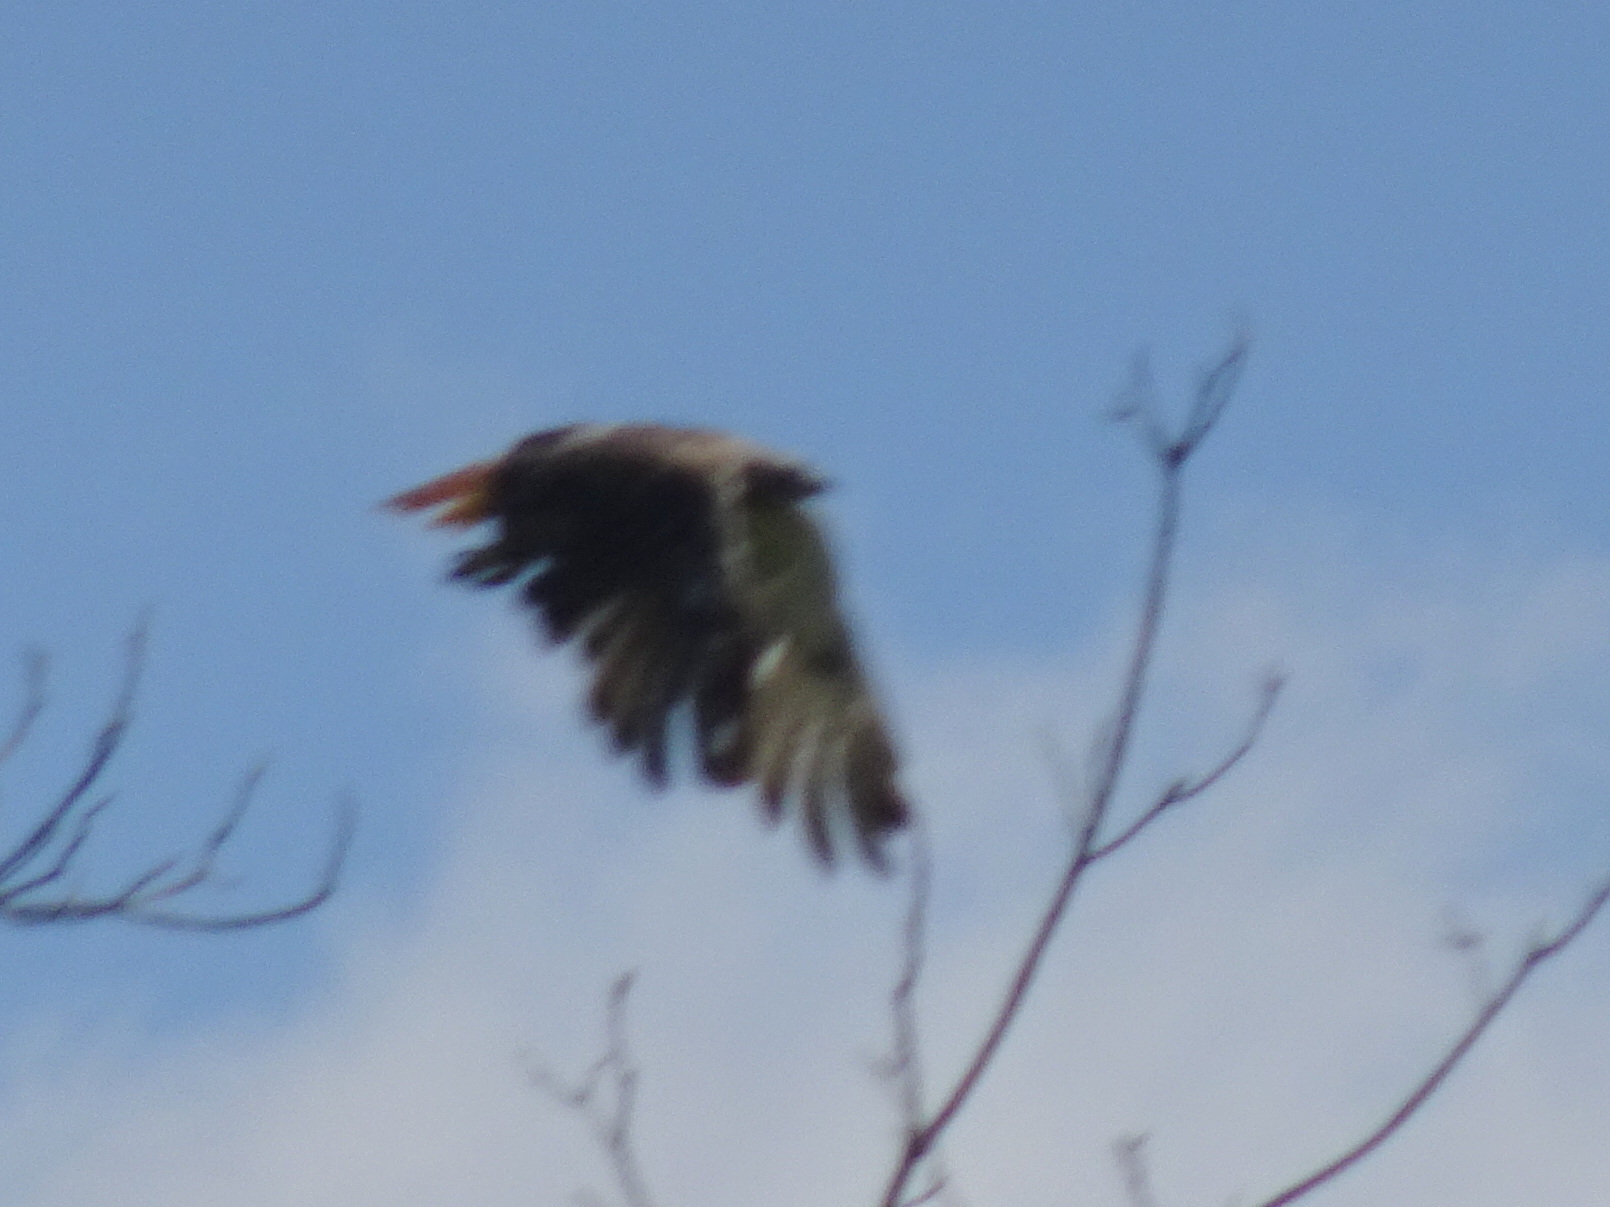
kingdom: Animalia
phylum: Chordata
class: Aves
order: Accipitriformes
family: Accipitridae
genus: Buteo
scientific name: Buteo jamaicensis
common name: Red-tailed hawk
